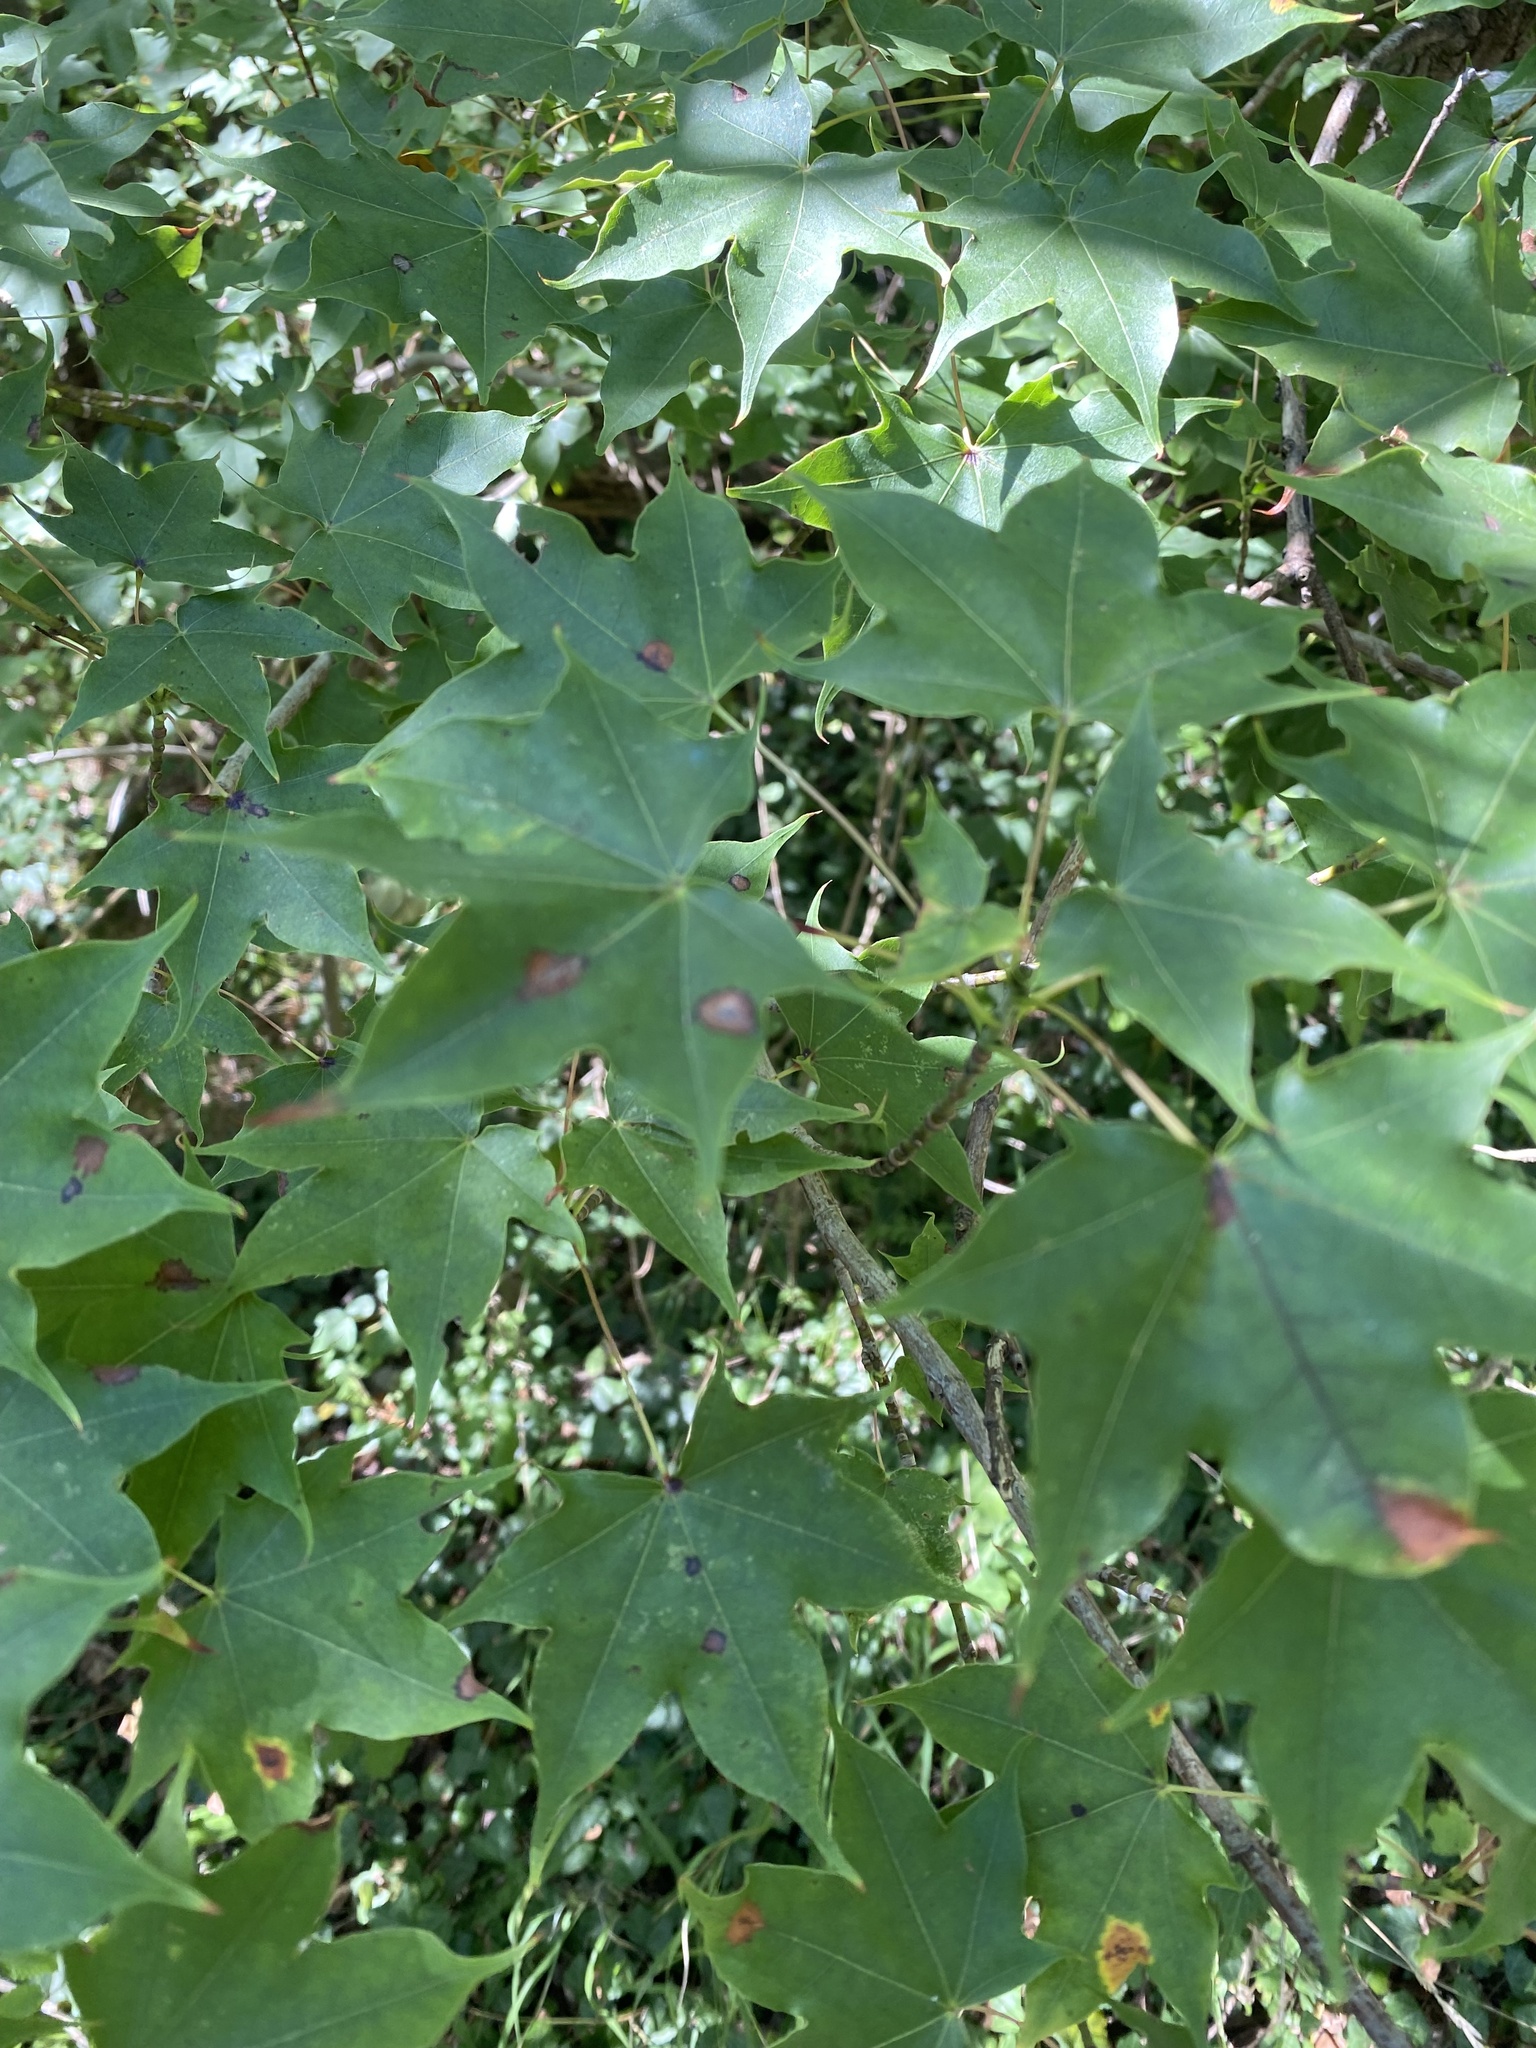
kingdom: Plantae
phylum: Tracheophyta
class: Magnoliopsida
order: Sapindales
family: Sapindaceae
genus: Acer
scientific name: Acer cappadocicum
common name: Cappadocian maple
